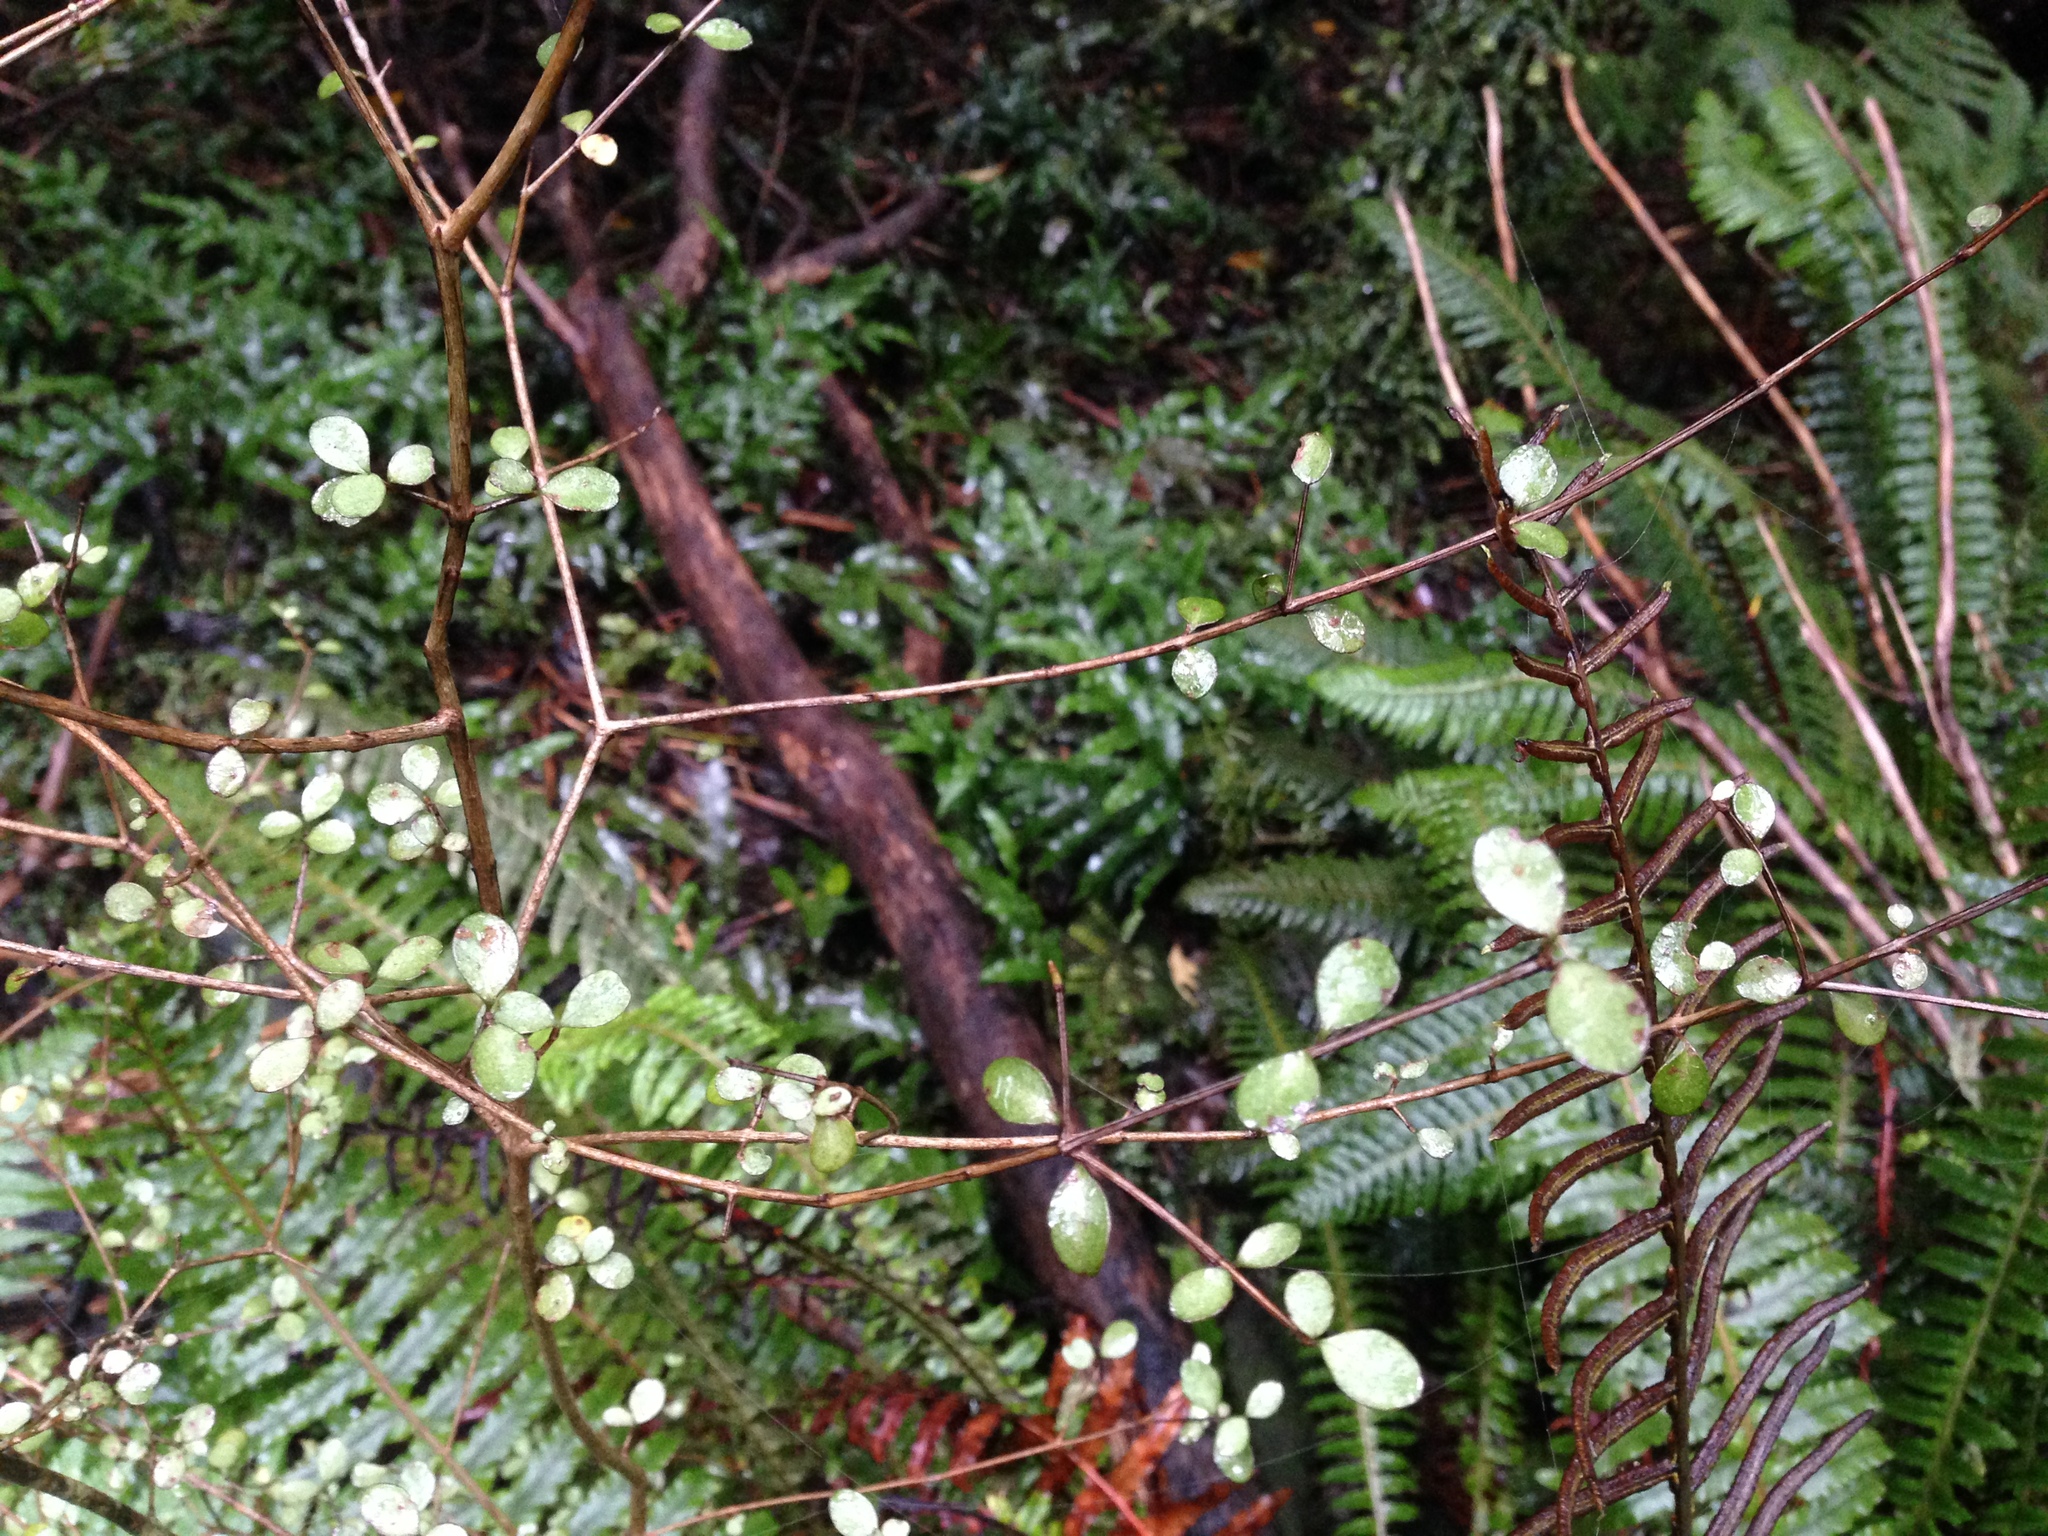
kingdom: Plantae
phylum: Tracheophyta
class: Magnoliopsida
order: Myrtales
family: Myrtaceae
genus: Neomyrtus
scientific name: Neomyrtus pedunculata
